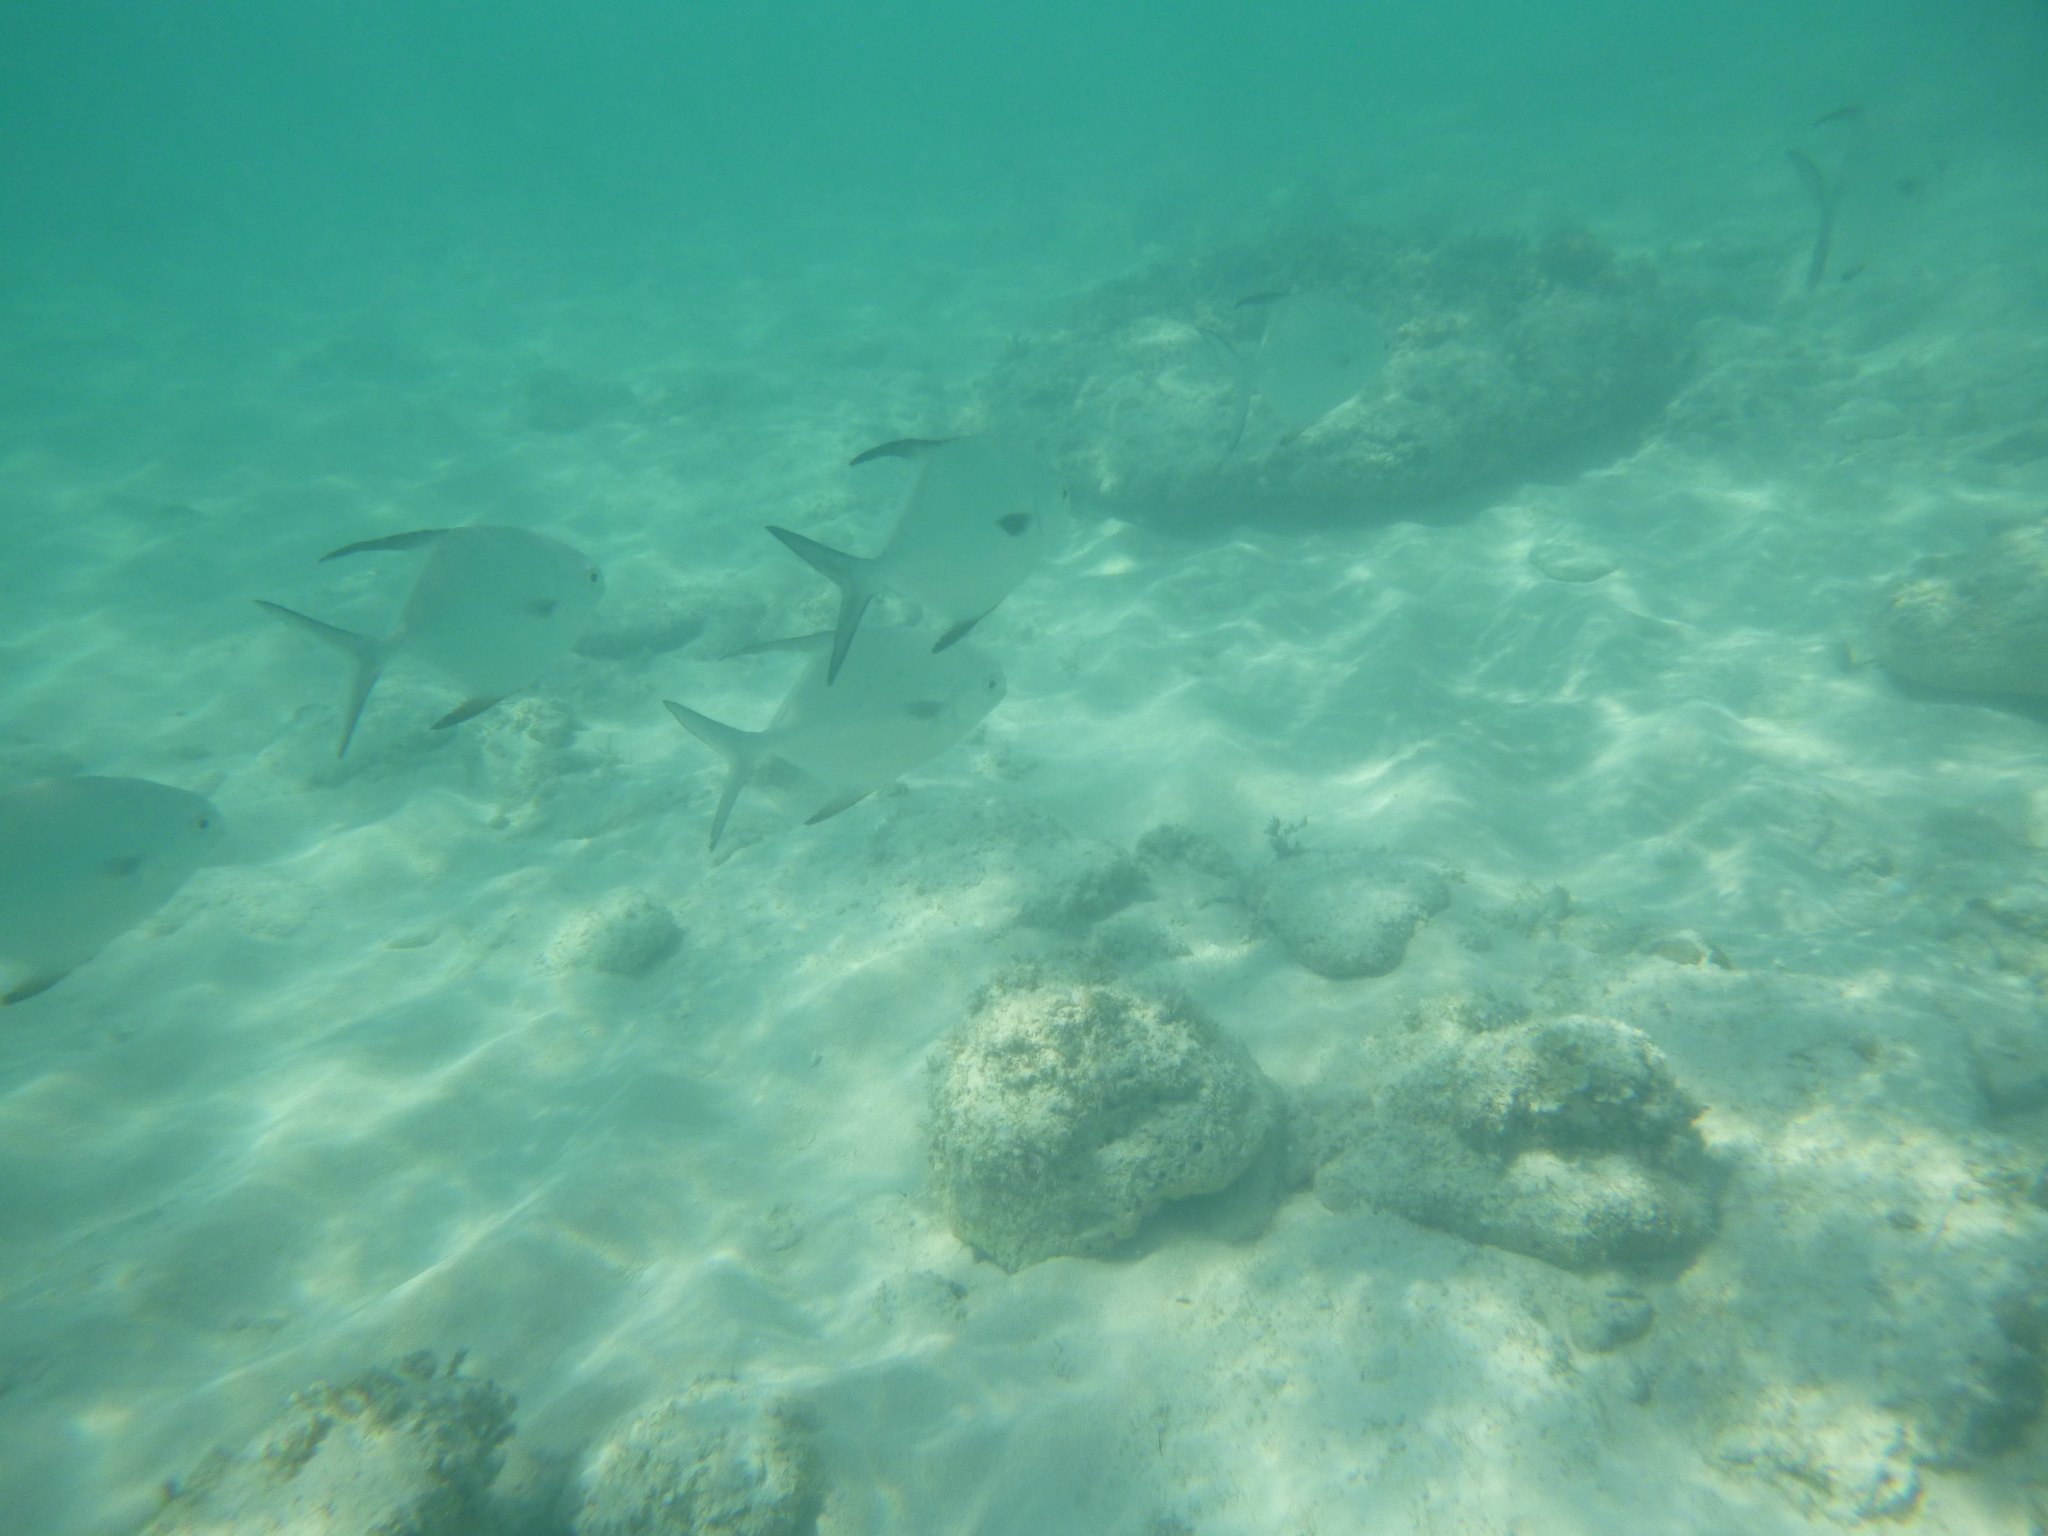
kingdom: Animalia
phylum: Chordata
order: Perciformes
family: Carangidae
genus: Trachinotus
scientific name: Trachinotus falcatus
